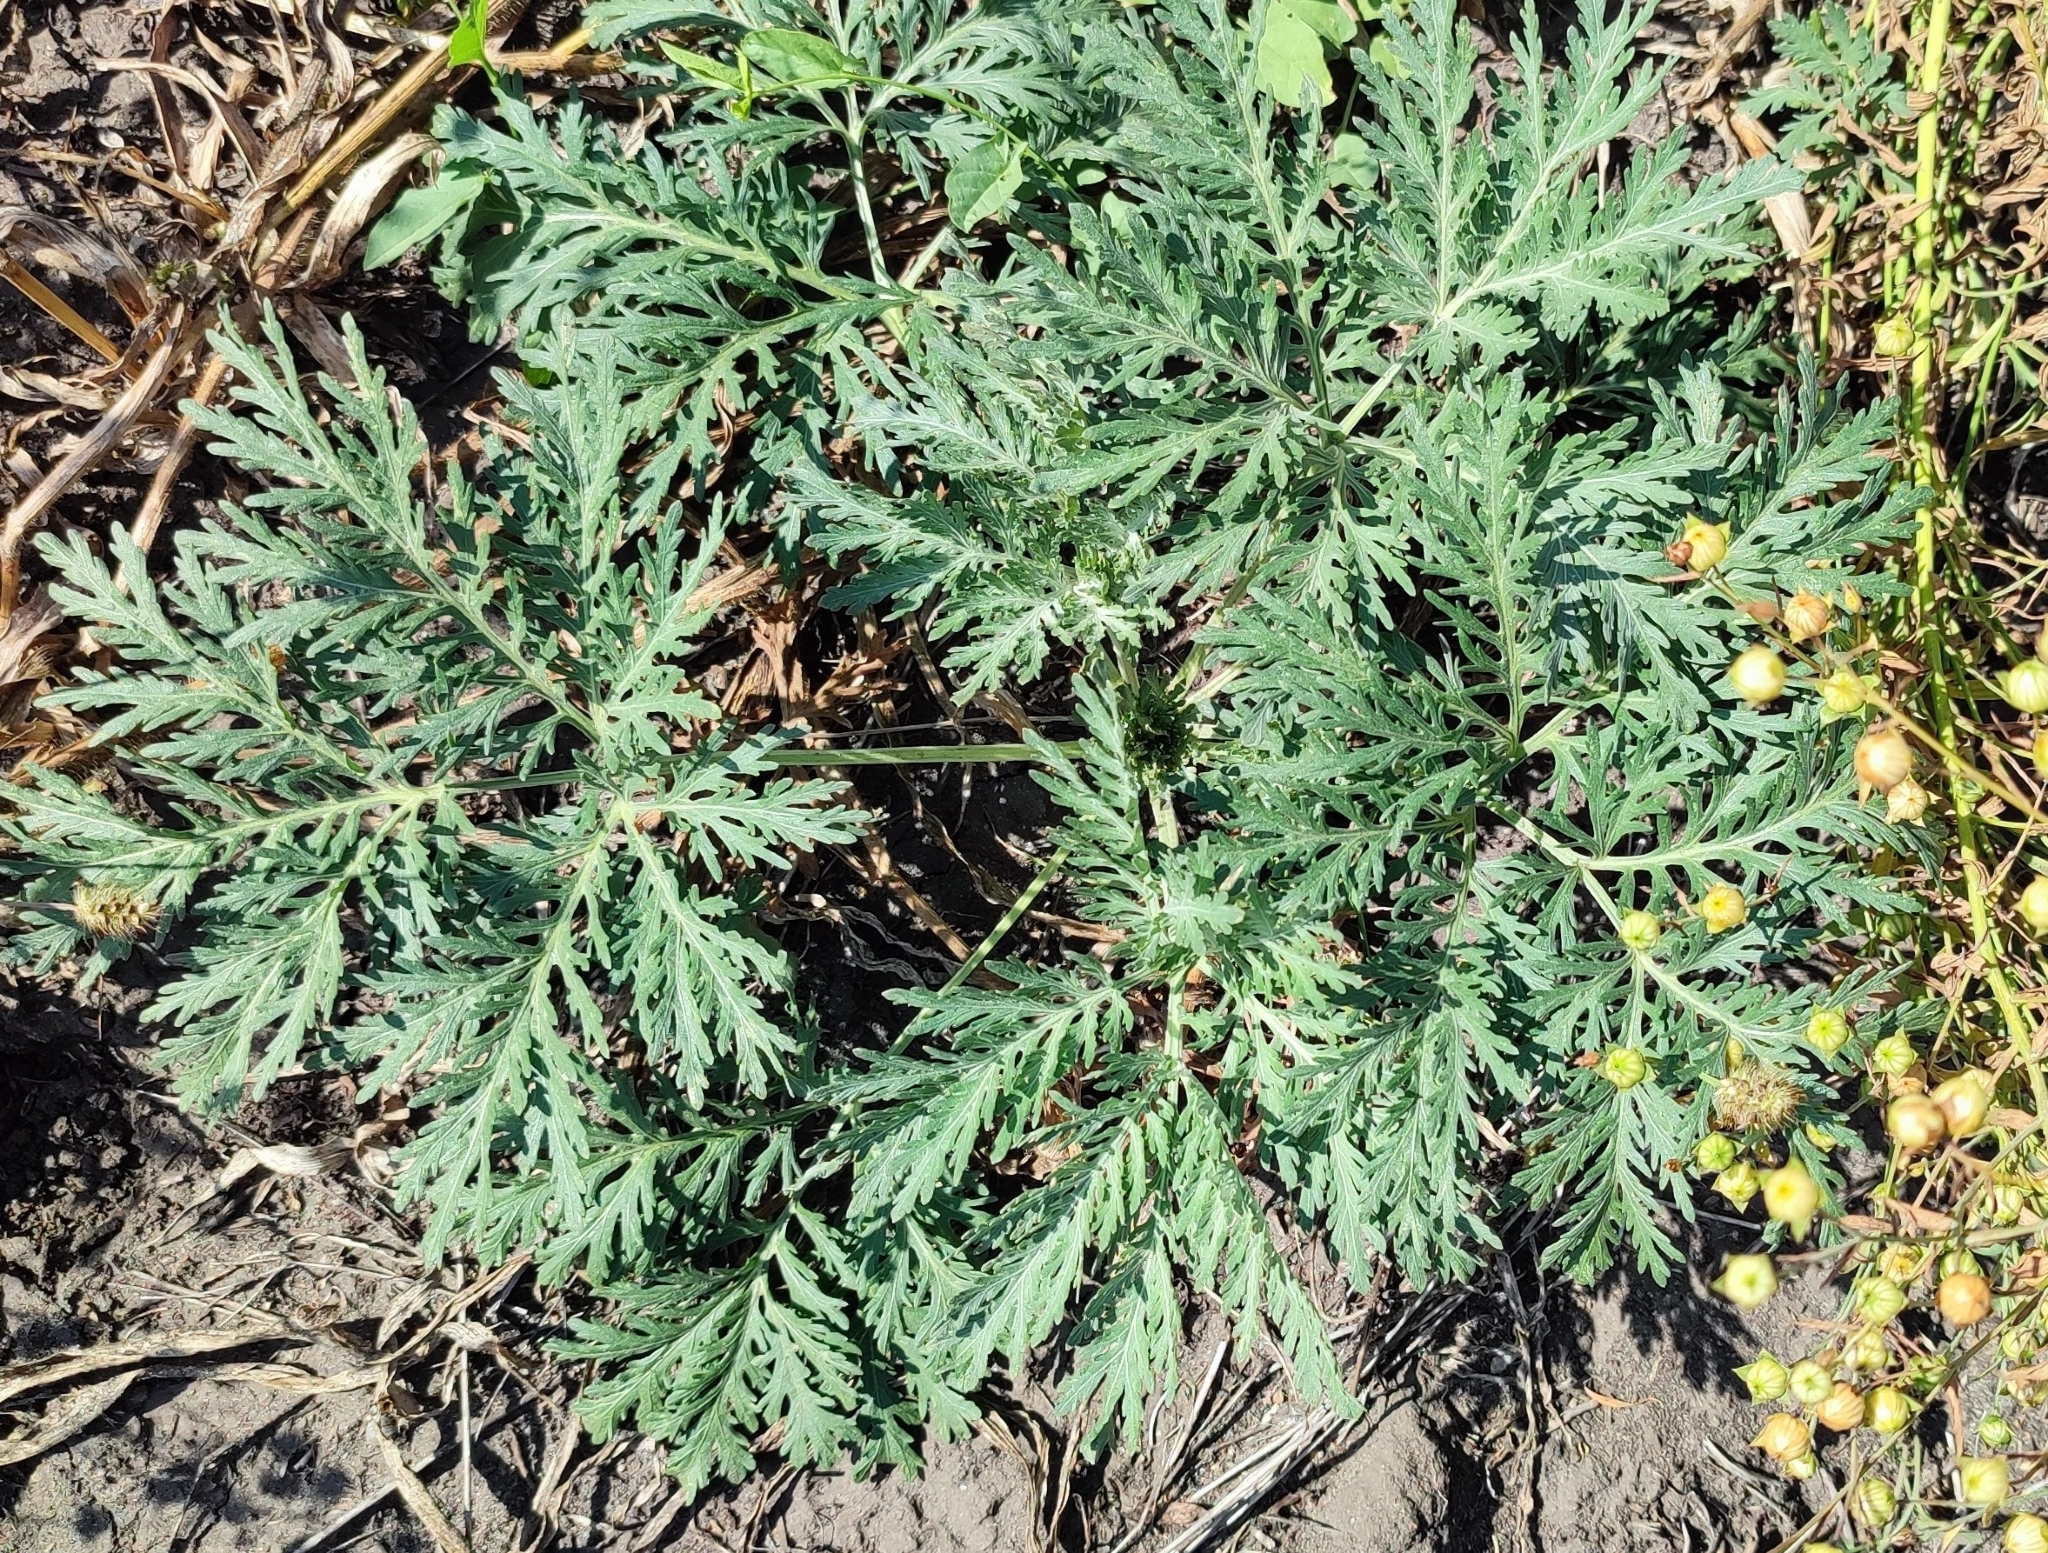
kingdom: Plantae
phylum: Tracheophyta
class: Magnoliopsida
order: Asterales
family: Asteraceae
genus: Artemisia
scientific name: Artemisia sieversiana
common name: Sieversian wormwood
